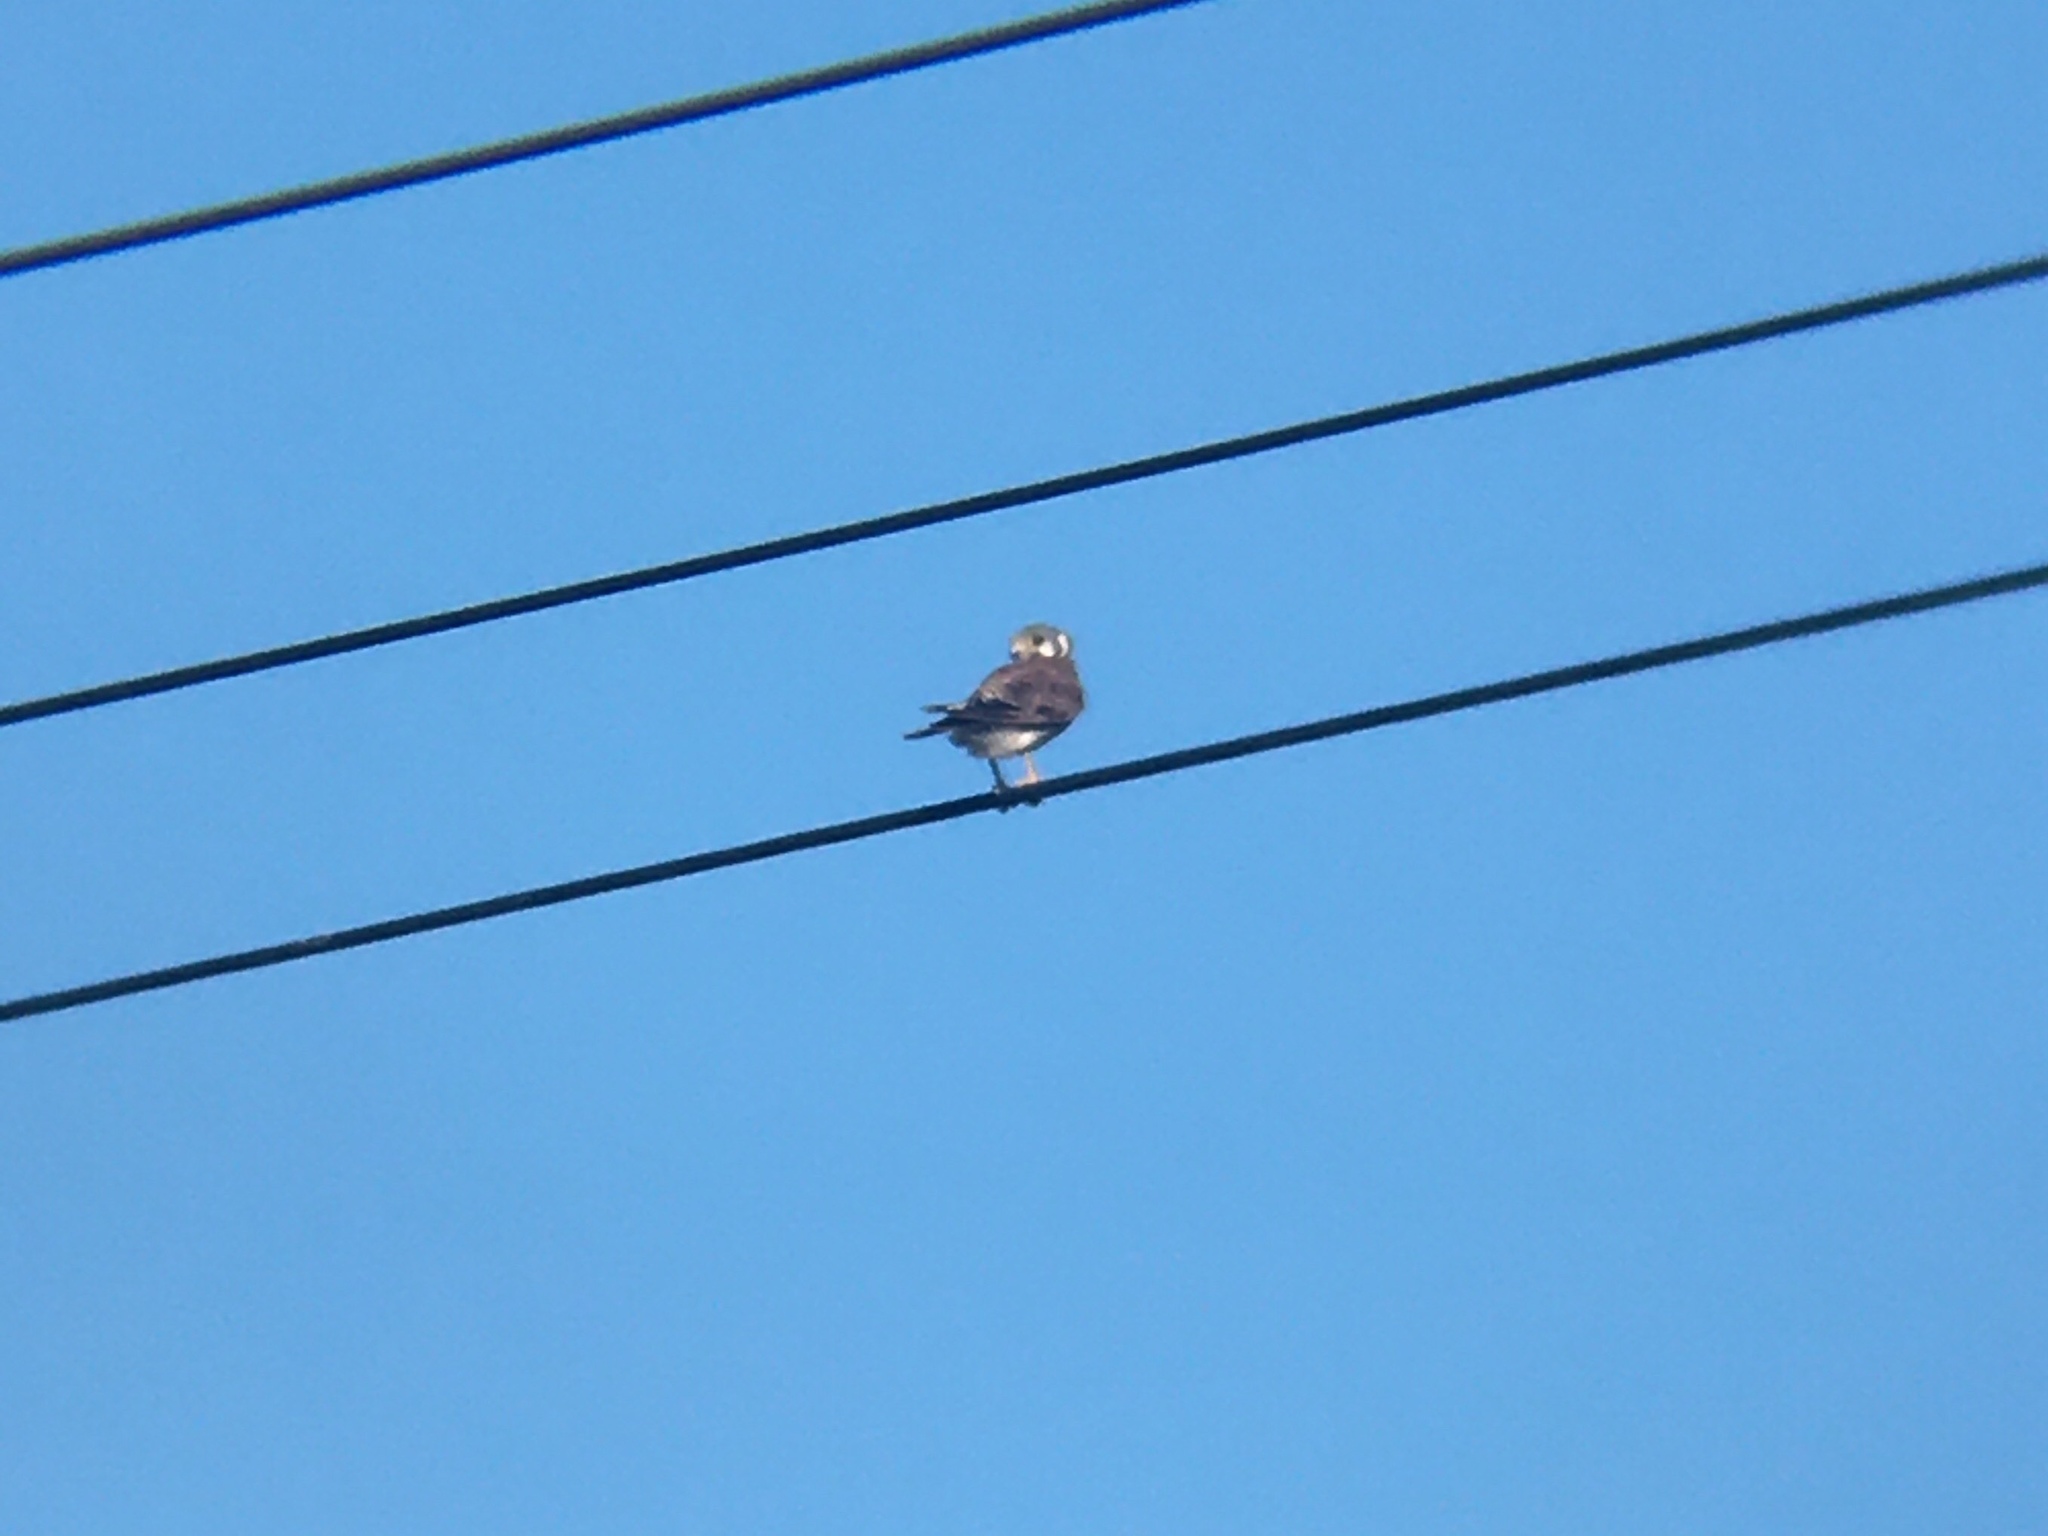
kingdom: Animalia
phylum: Chordata
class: Aves
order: Falconiformes
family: Falconidae
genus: Falco
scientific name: Falco sparverius
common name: American kestrel
